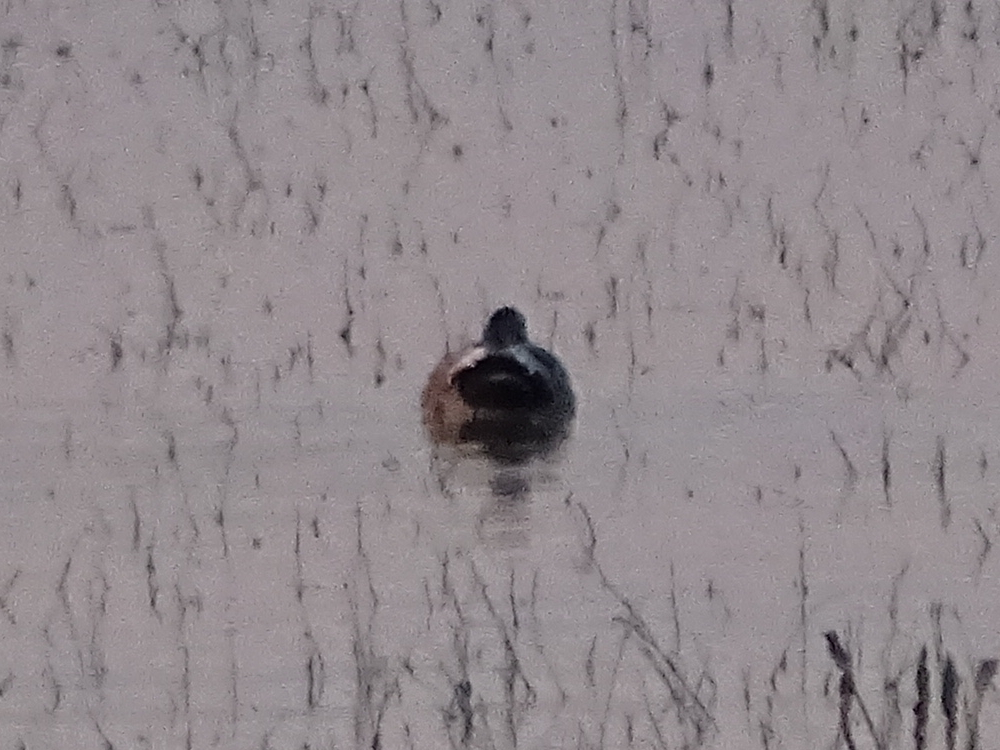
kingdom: Animalia
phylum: Chordata
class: Aves
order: Anseriformes
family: Anatidae
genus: Mareca
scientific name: Mareca strepera
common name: Gadwall
